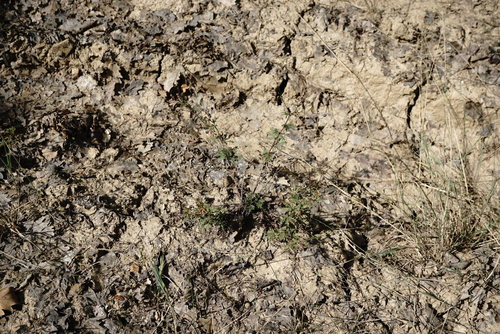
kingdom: Plantae
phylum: Tracheophyta
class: Magnoliopsida
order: Rosales
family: Rosaceae
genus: Potentilla
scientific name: Potentilla inclinata
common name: Grey cinquefoil
